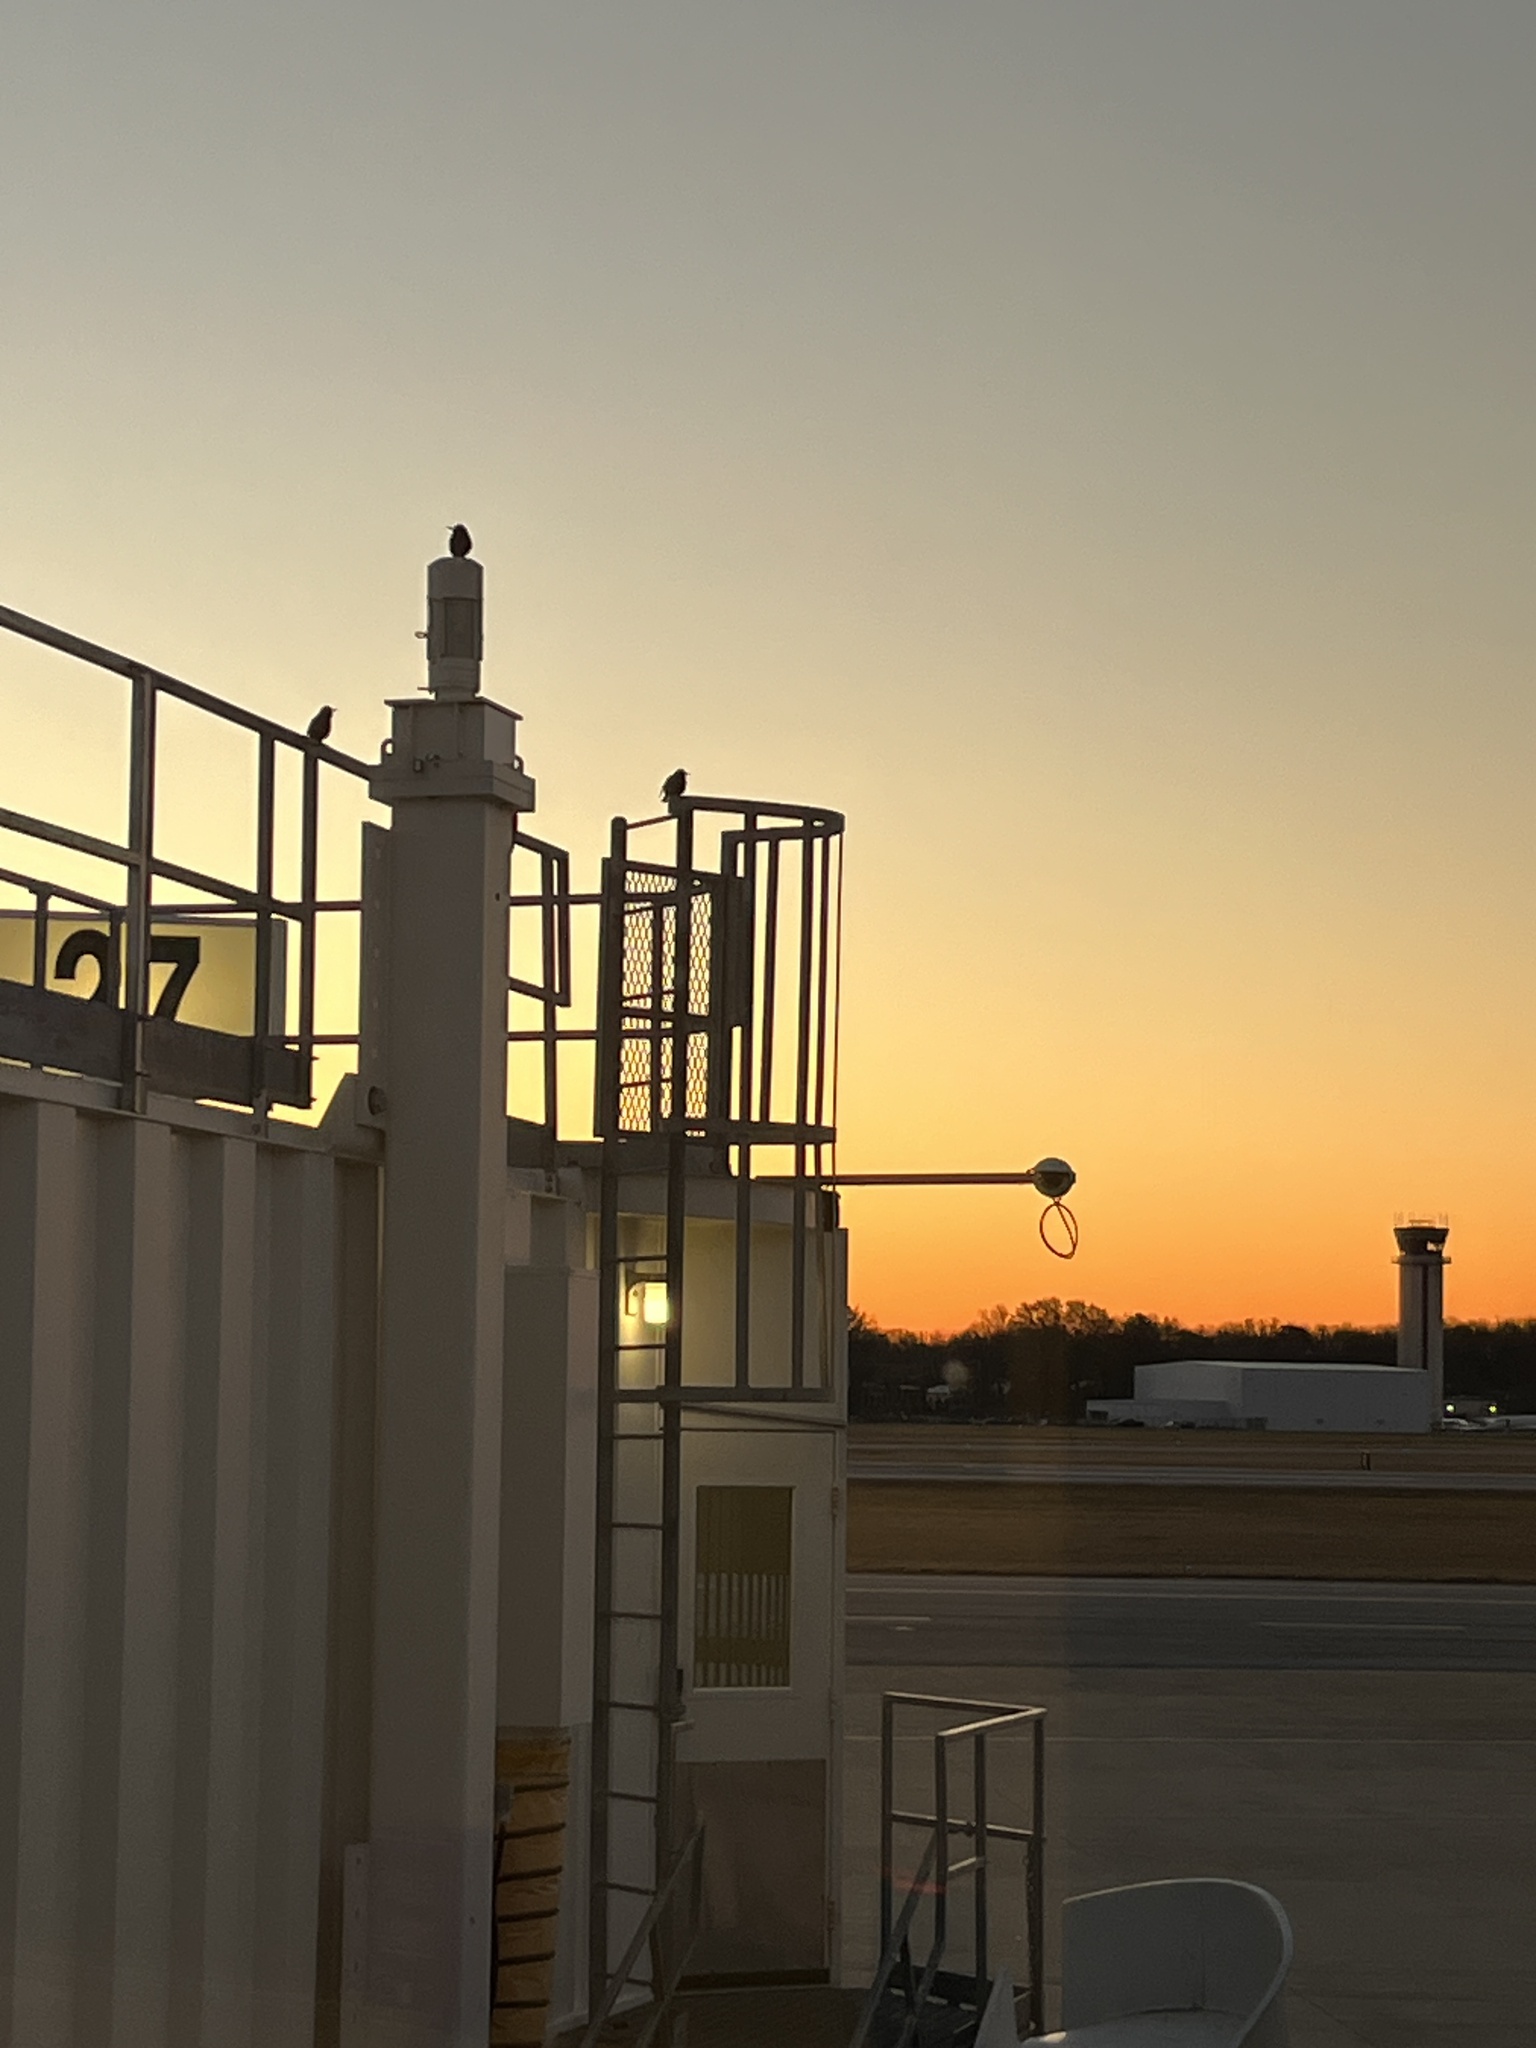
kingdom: Animalia
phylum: Chordata
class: Aves
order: Passeriformes
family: Sturnidae
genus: Sturnus
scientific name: Sturnus vulgaris
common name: Common starling
